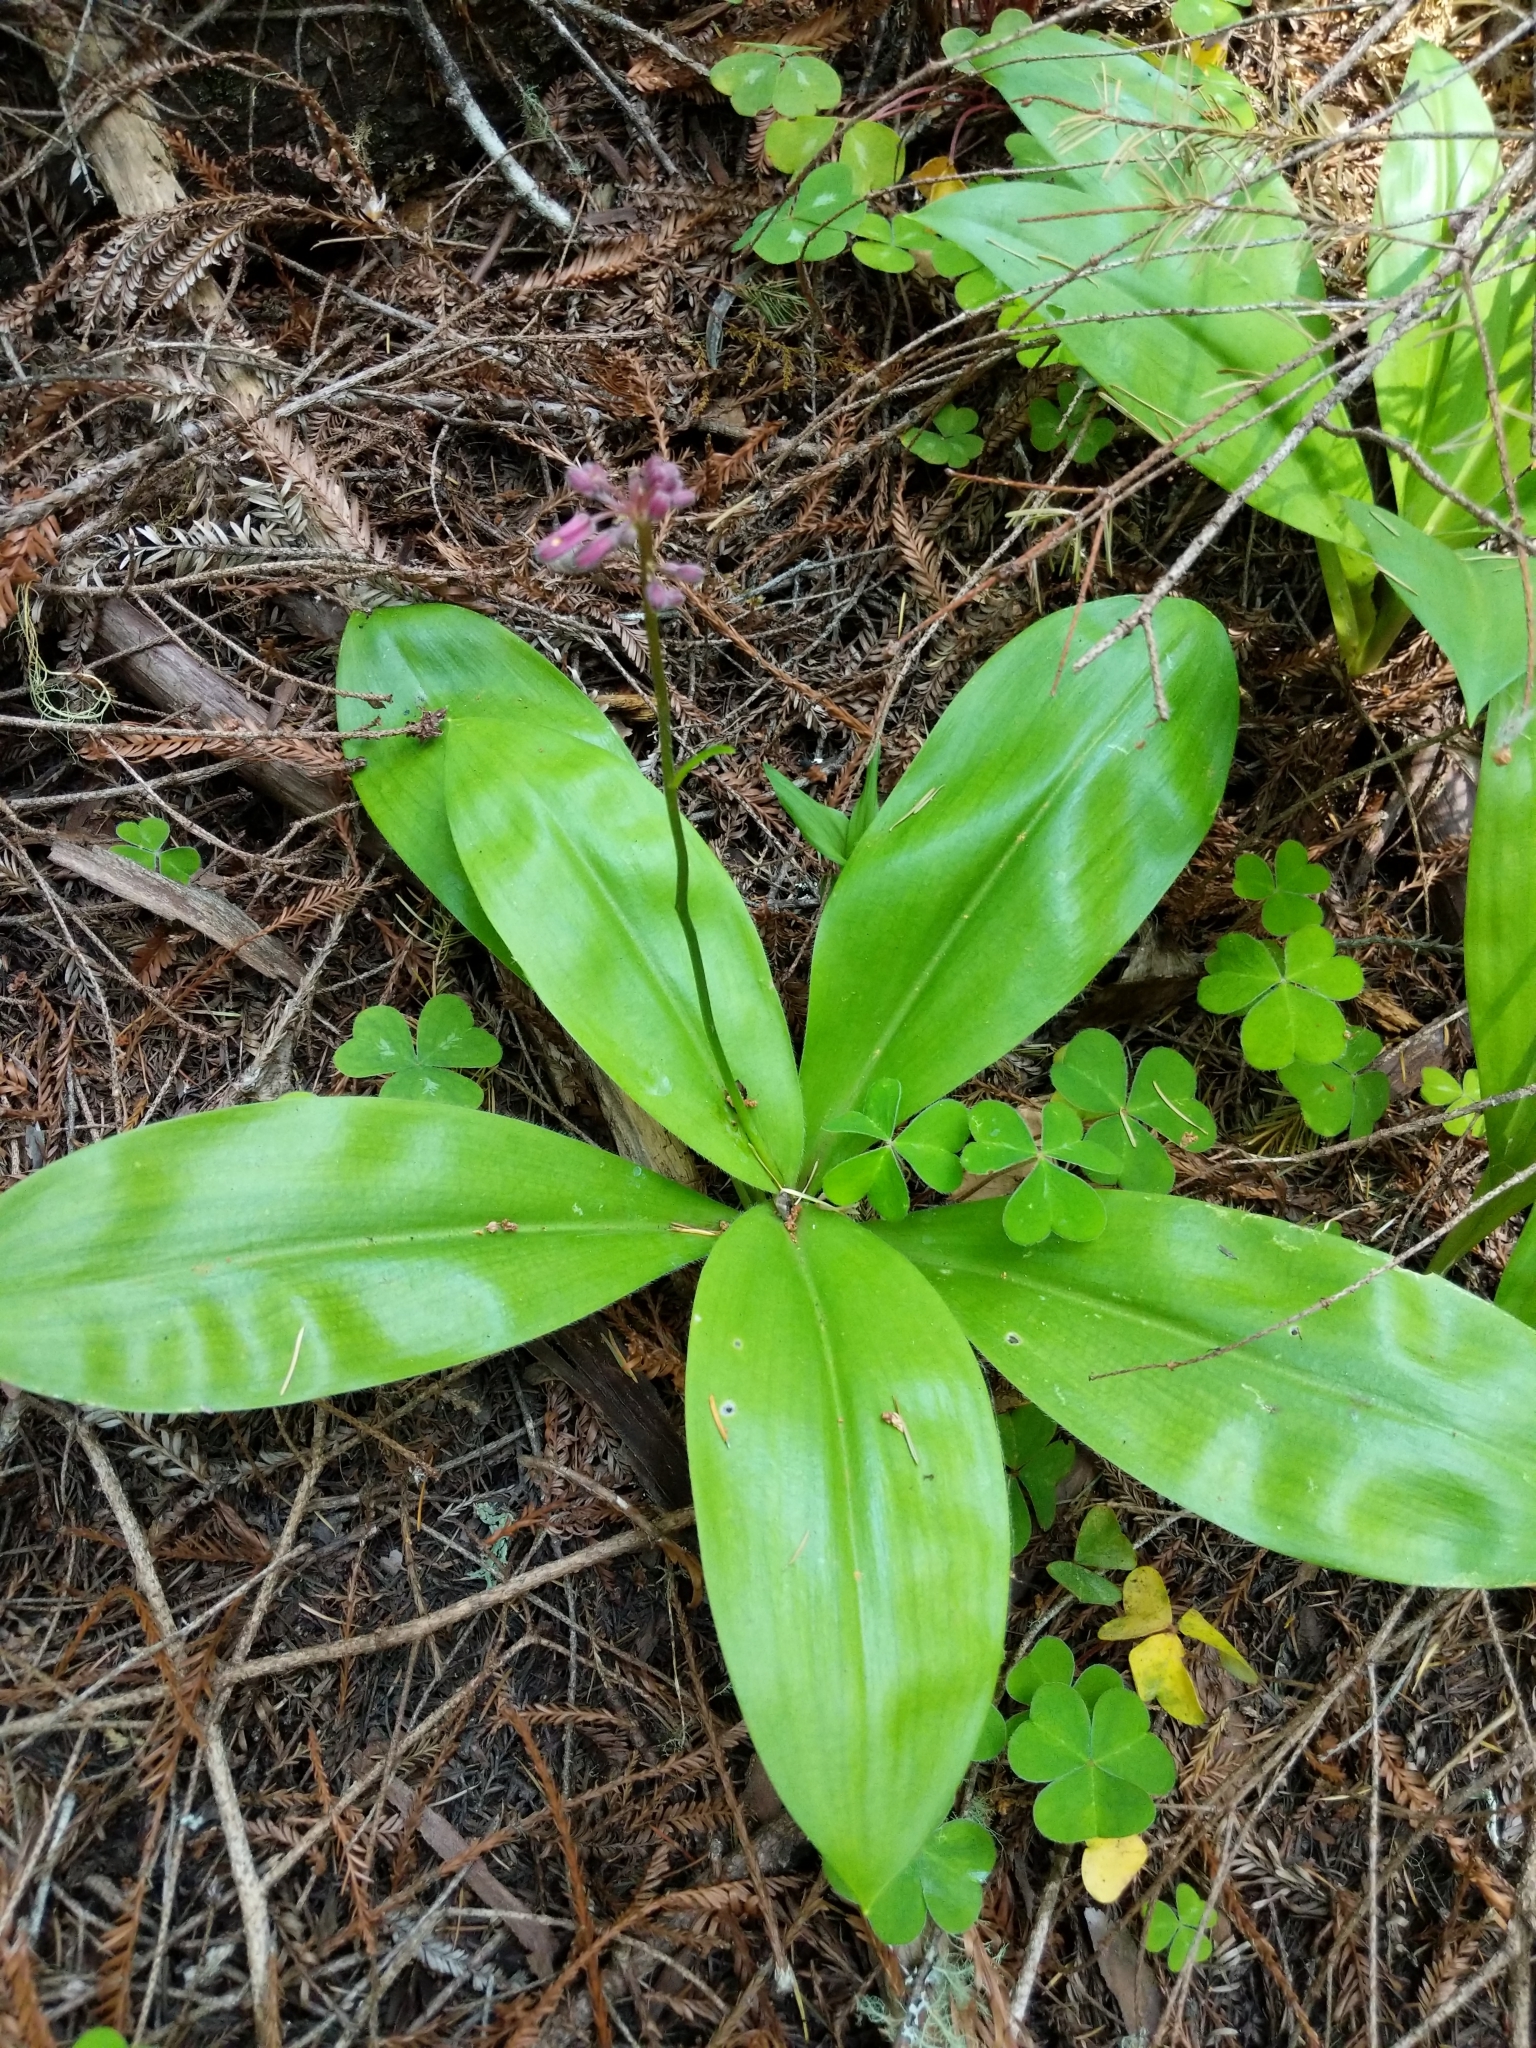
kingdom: Plantae
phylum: Tracheophyta
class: Liliopsida
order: Liliales
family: Liliaceae
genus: Clintonia
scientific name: Clintonia andrewsiana
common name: Red clintonia
